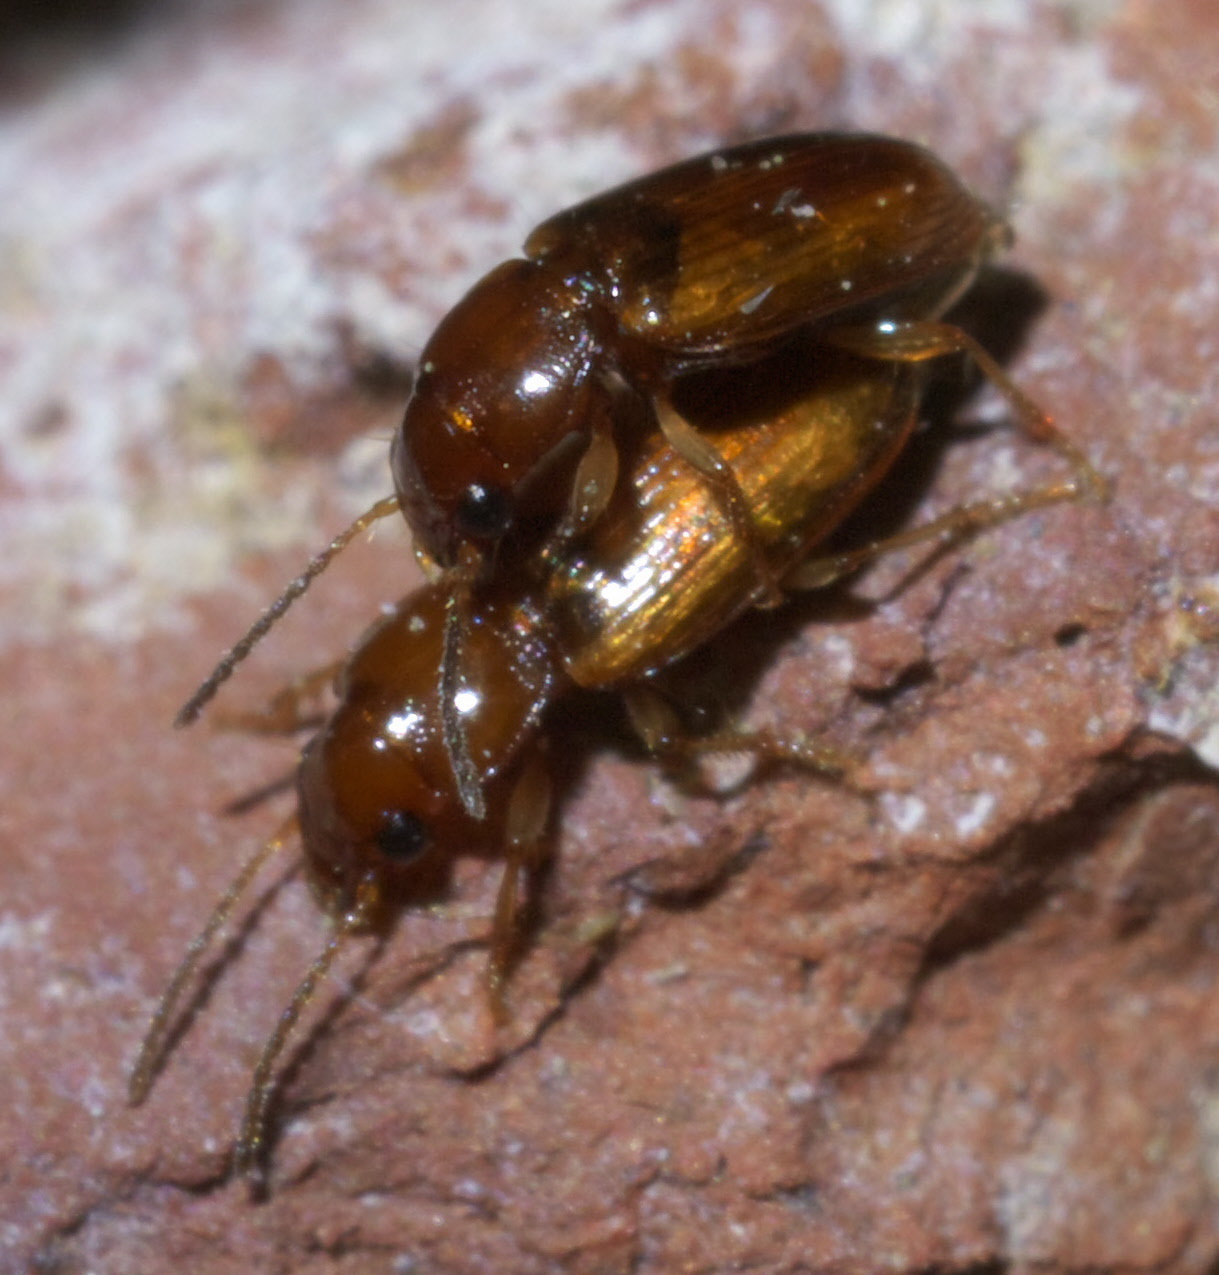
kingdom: Animalia
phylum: Arthropoda
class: Insecta
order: Coleoptera
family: Carabidae
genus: Acupalpus
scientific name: Acupalpus testaceus
